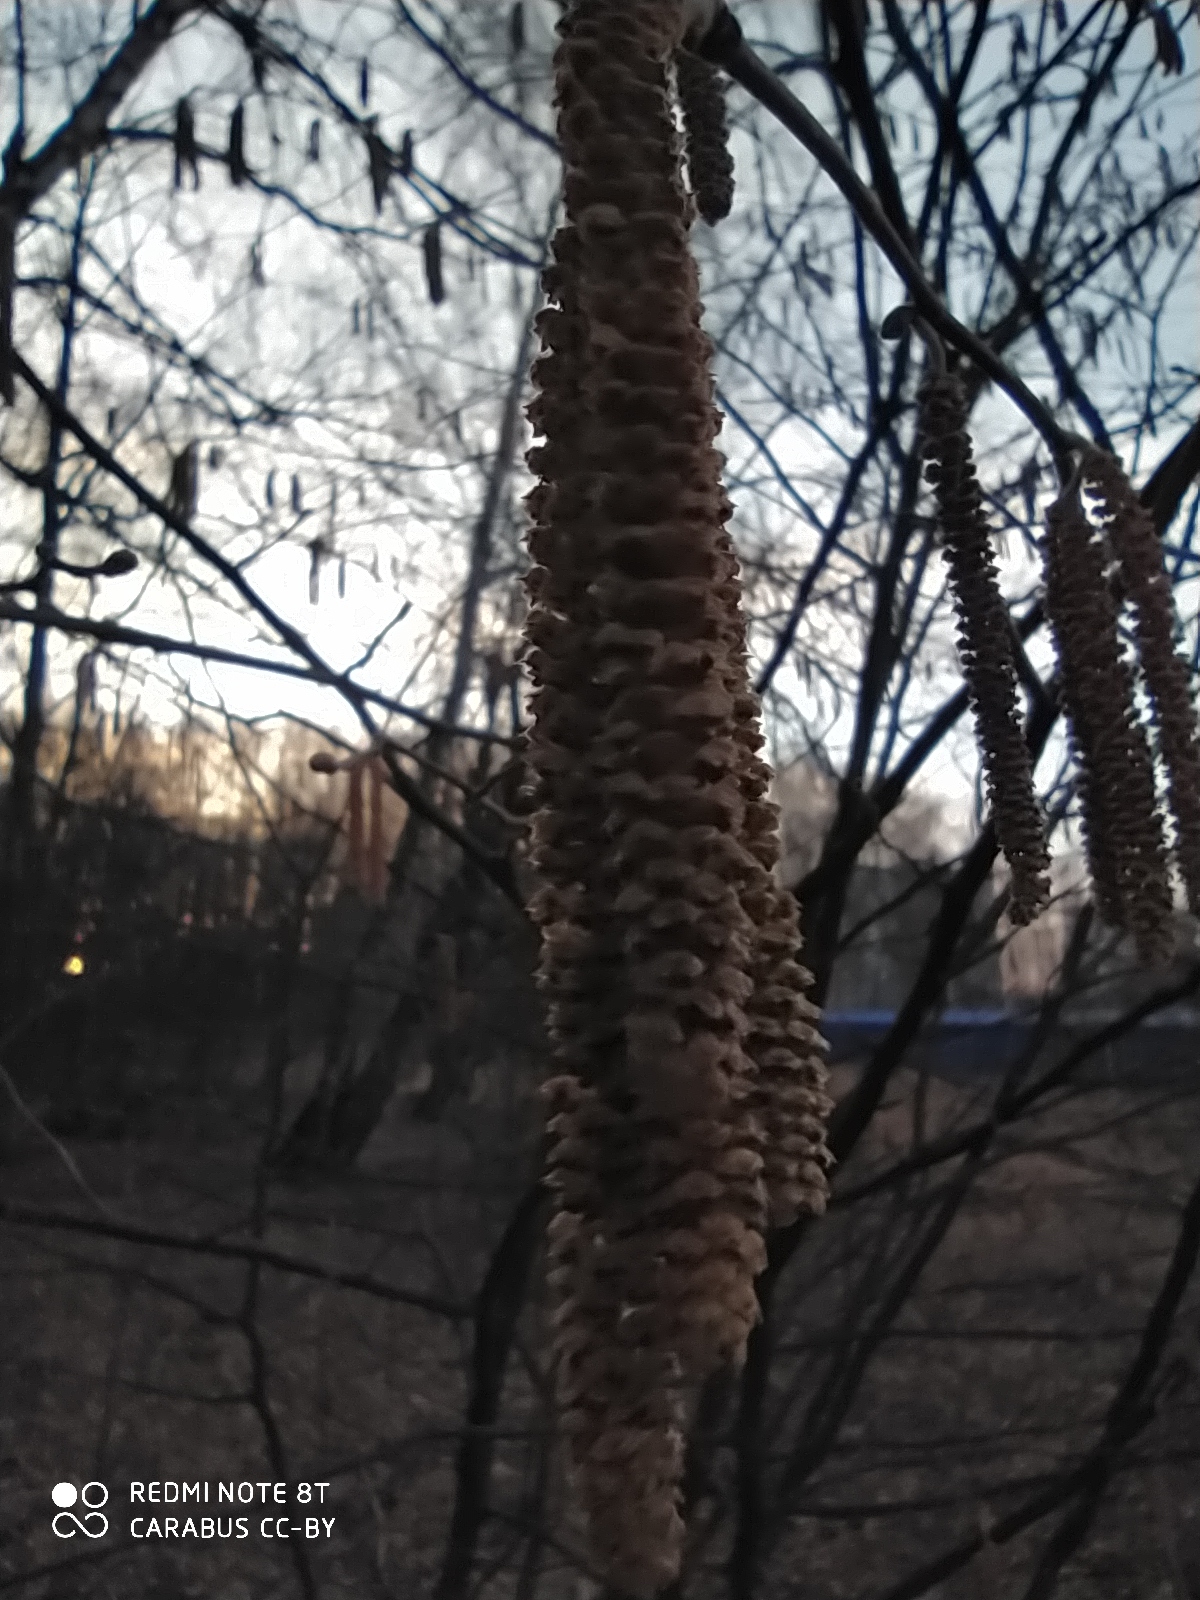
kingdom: Plantae
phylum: Tracheophyta
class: Magnoliopsida
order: Fagales
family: Betulaceae
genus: Corylus
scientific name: Corylus avellana
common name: European hazel
